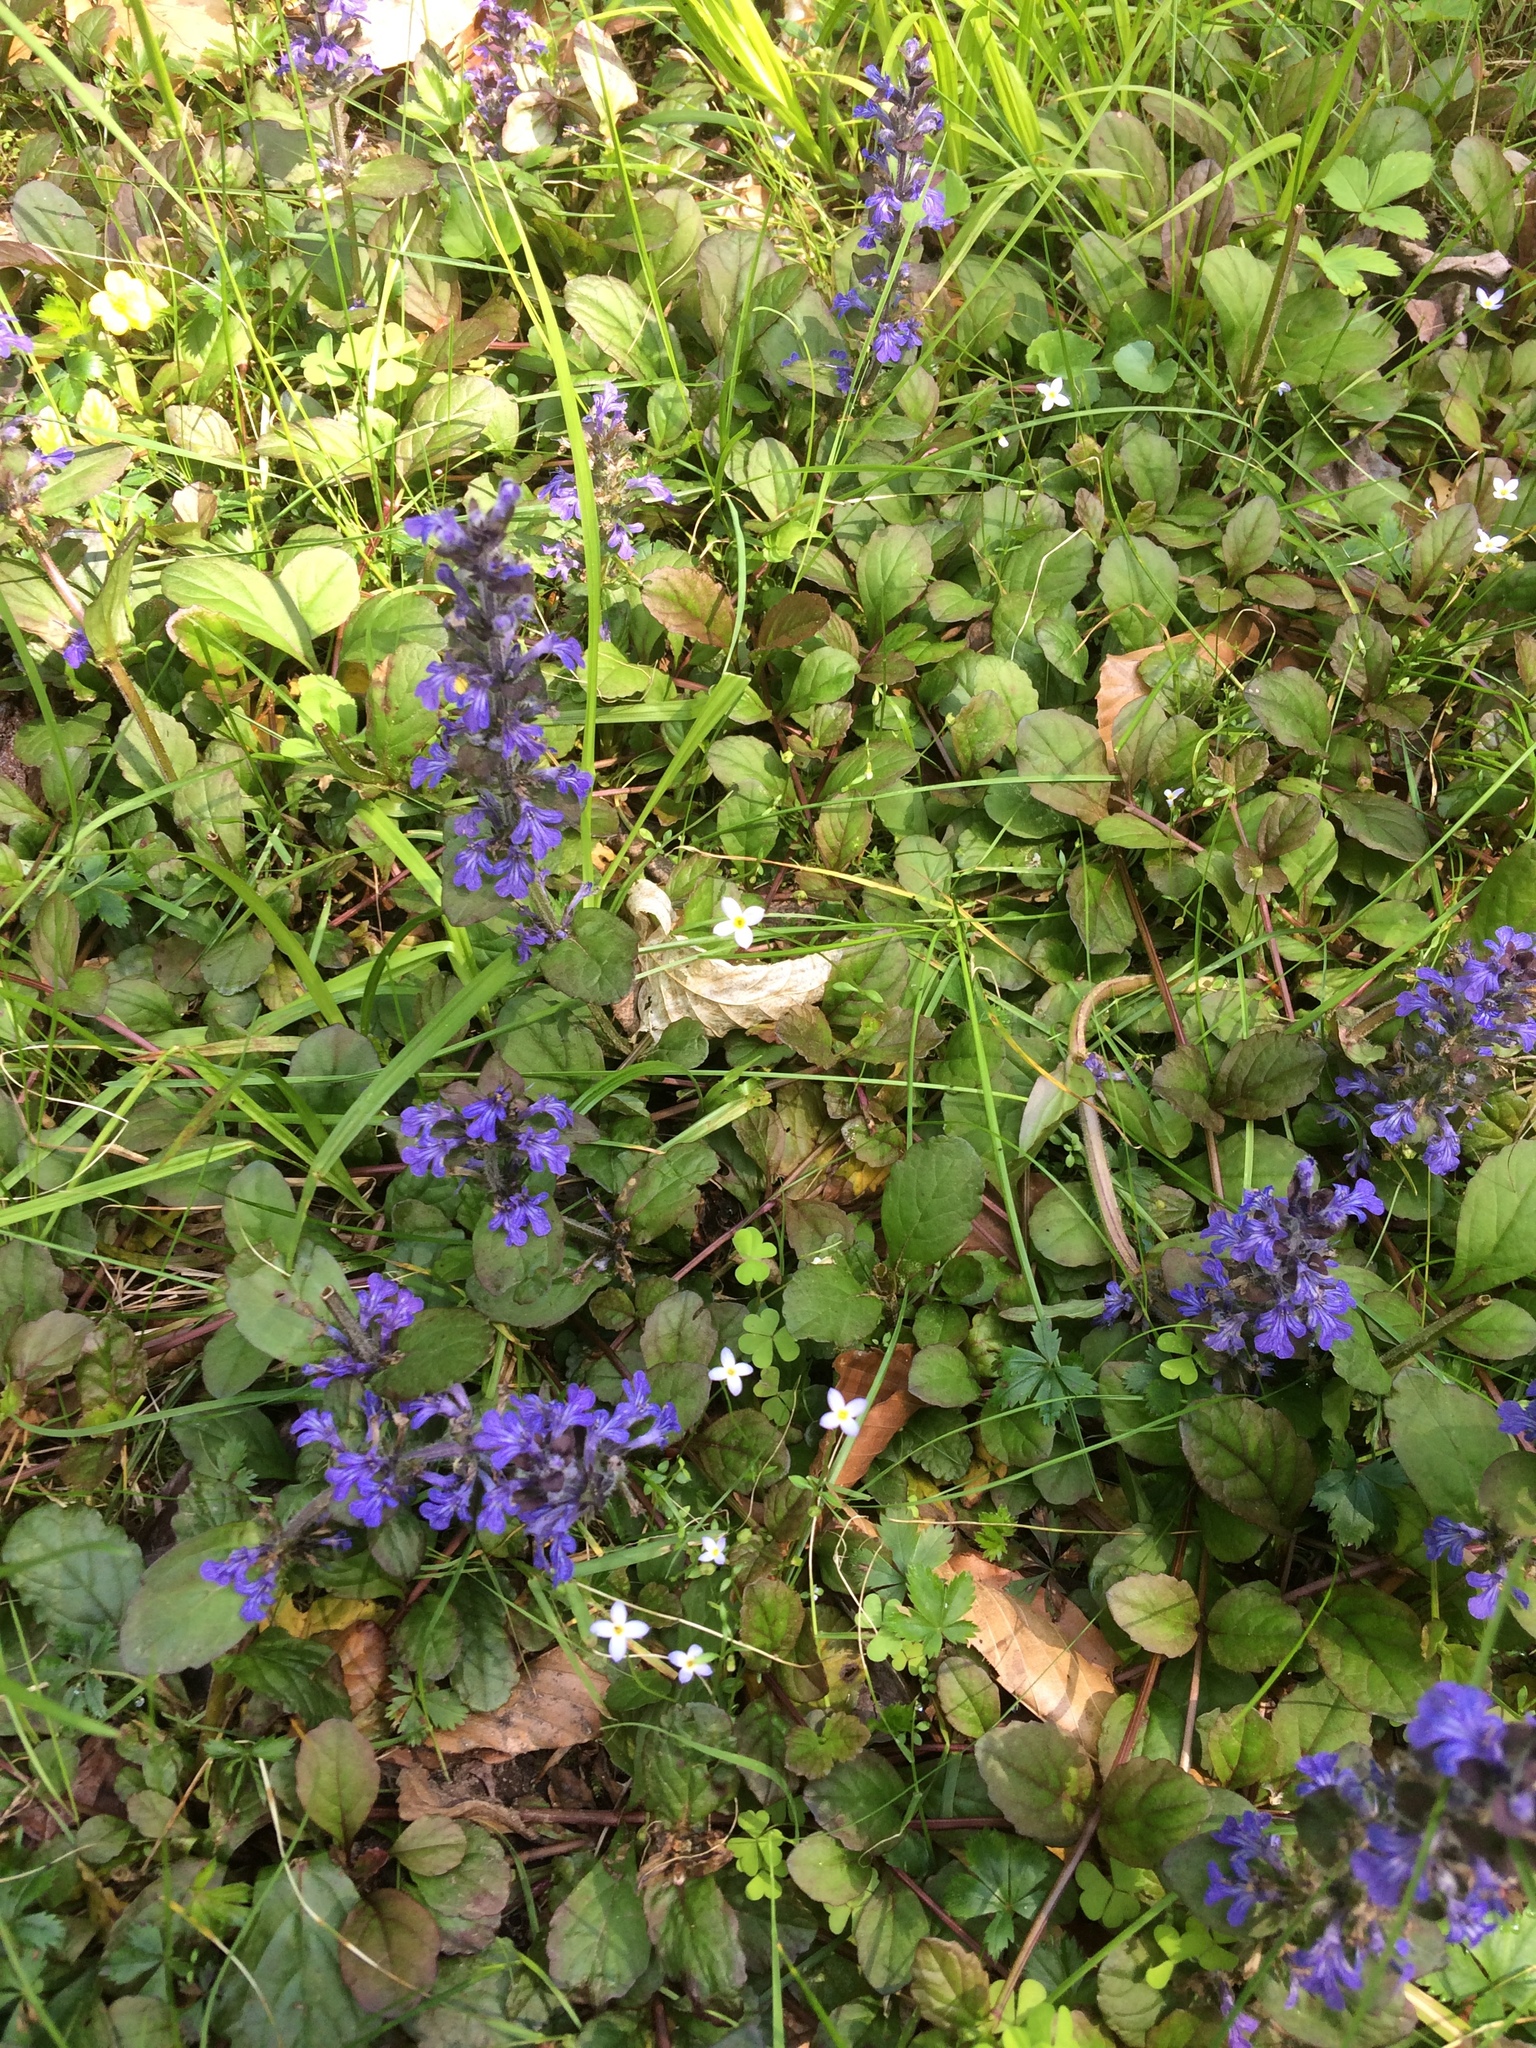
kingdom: Plantae
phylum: Tracheophyta
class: Magnoliopsida
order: Lamiales
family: Lamiaceae
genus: Ajuga
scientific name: Ajuga reptans
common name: Bugle
